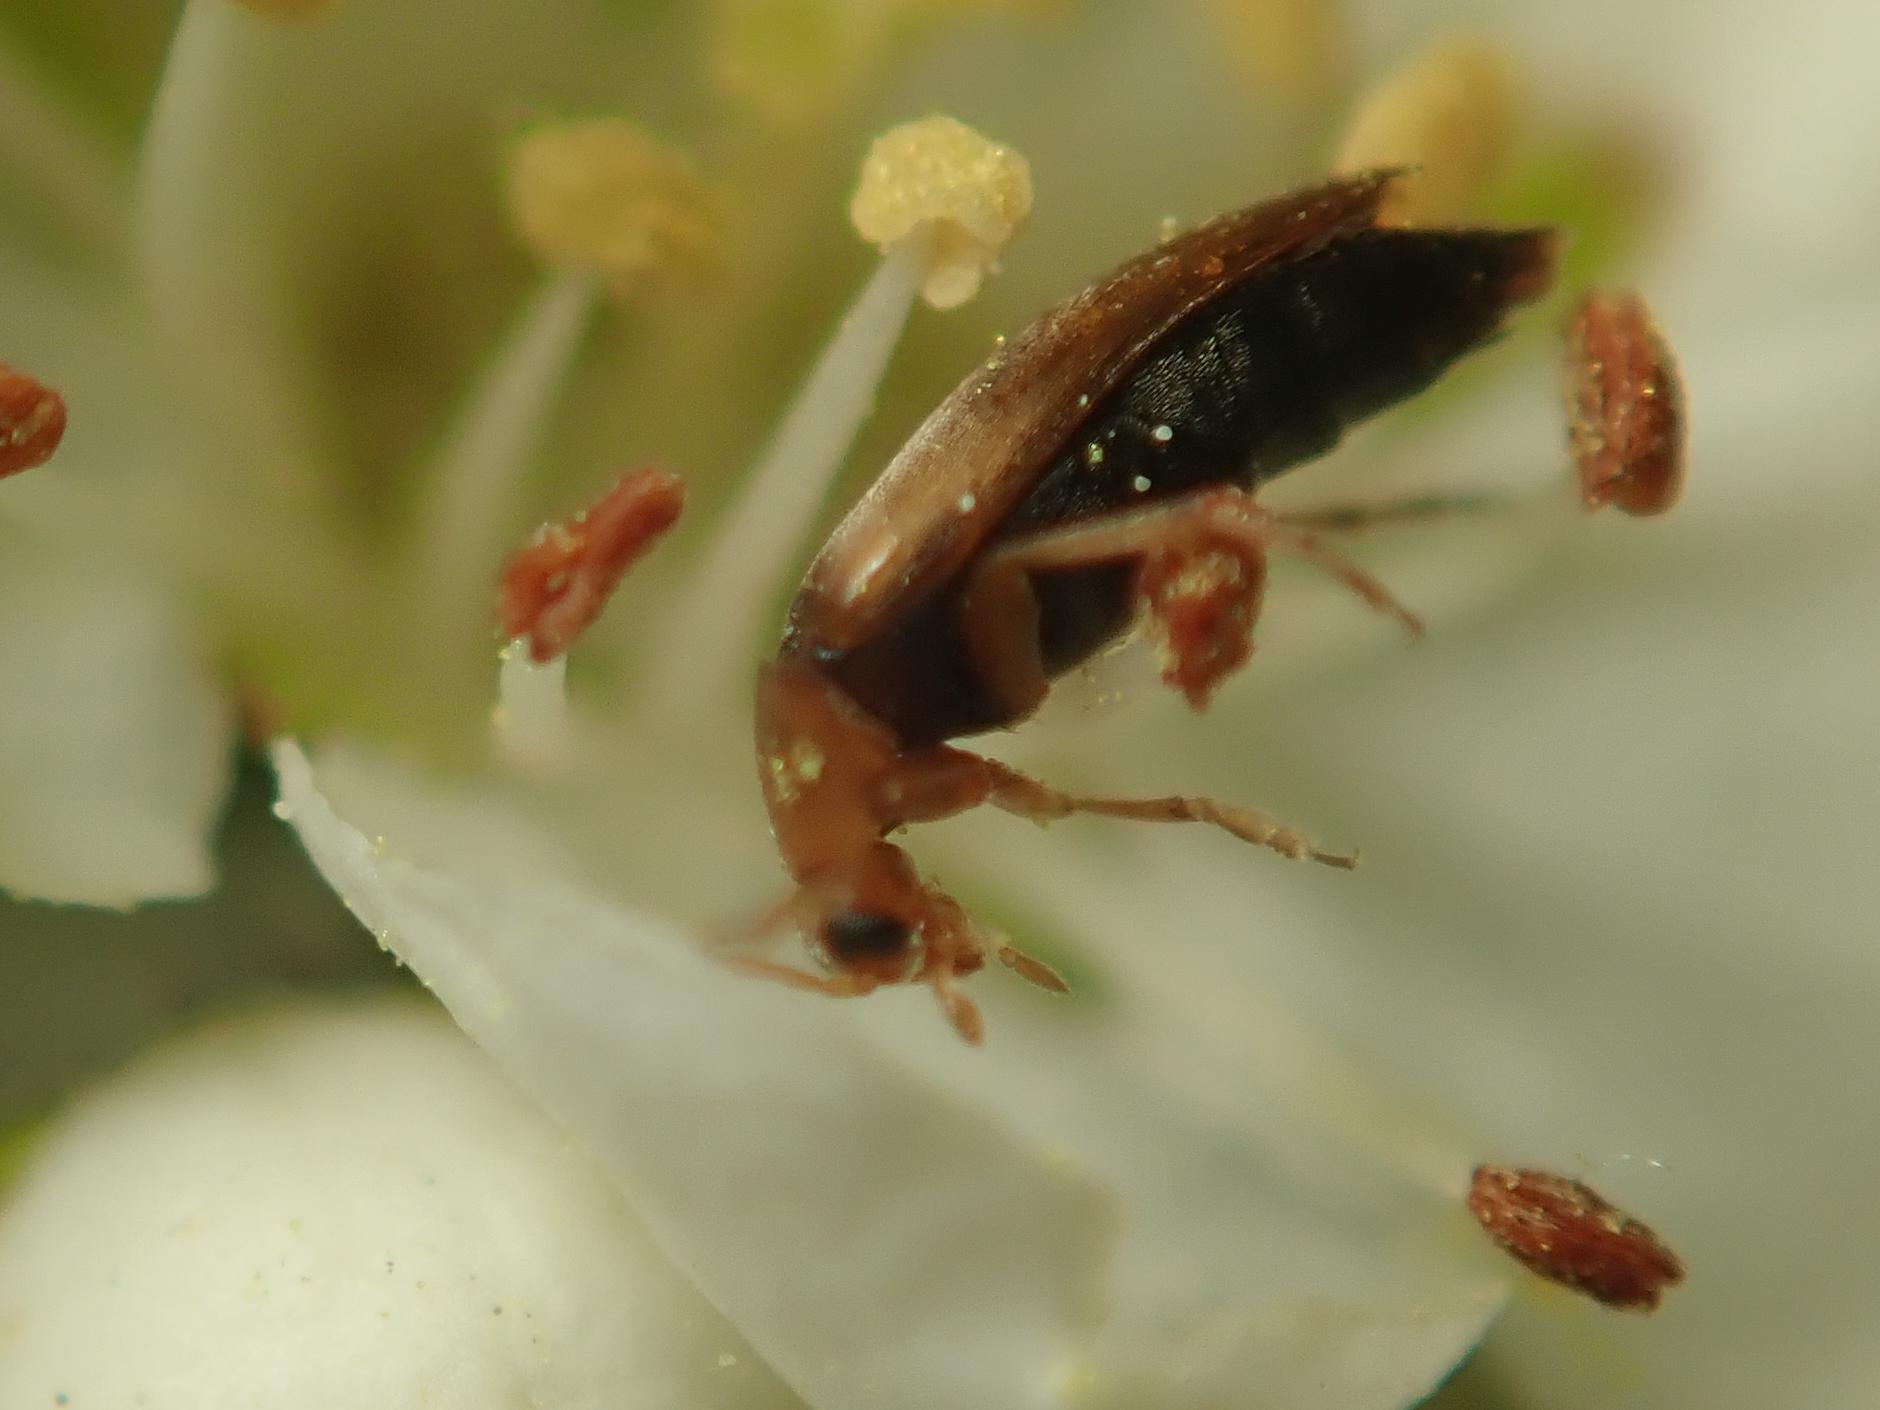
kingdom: Animalia
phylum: Arthropoda
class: Insecta
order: Coleoptera
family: Scraptiidae
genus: Anaspis
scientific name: Anaspis maculata
